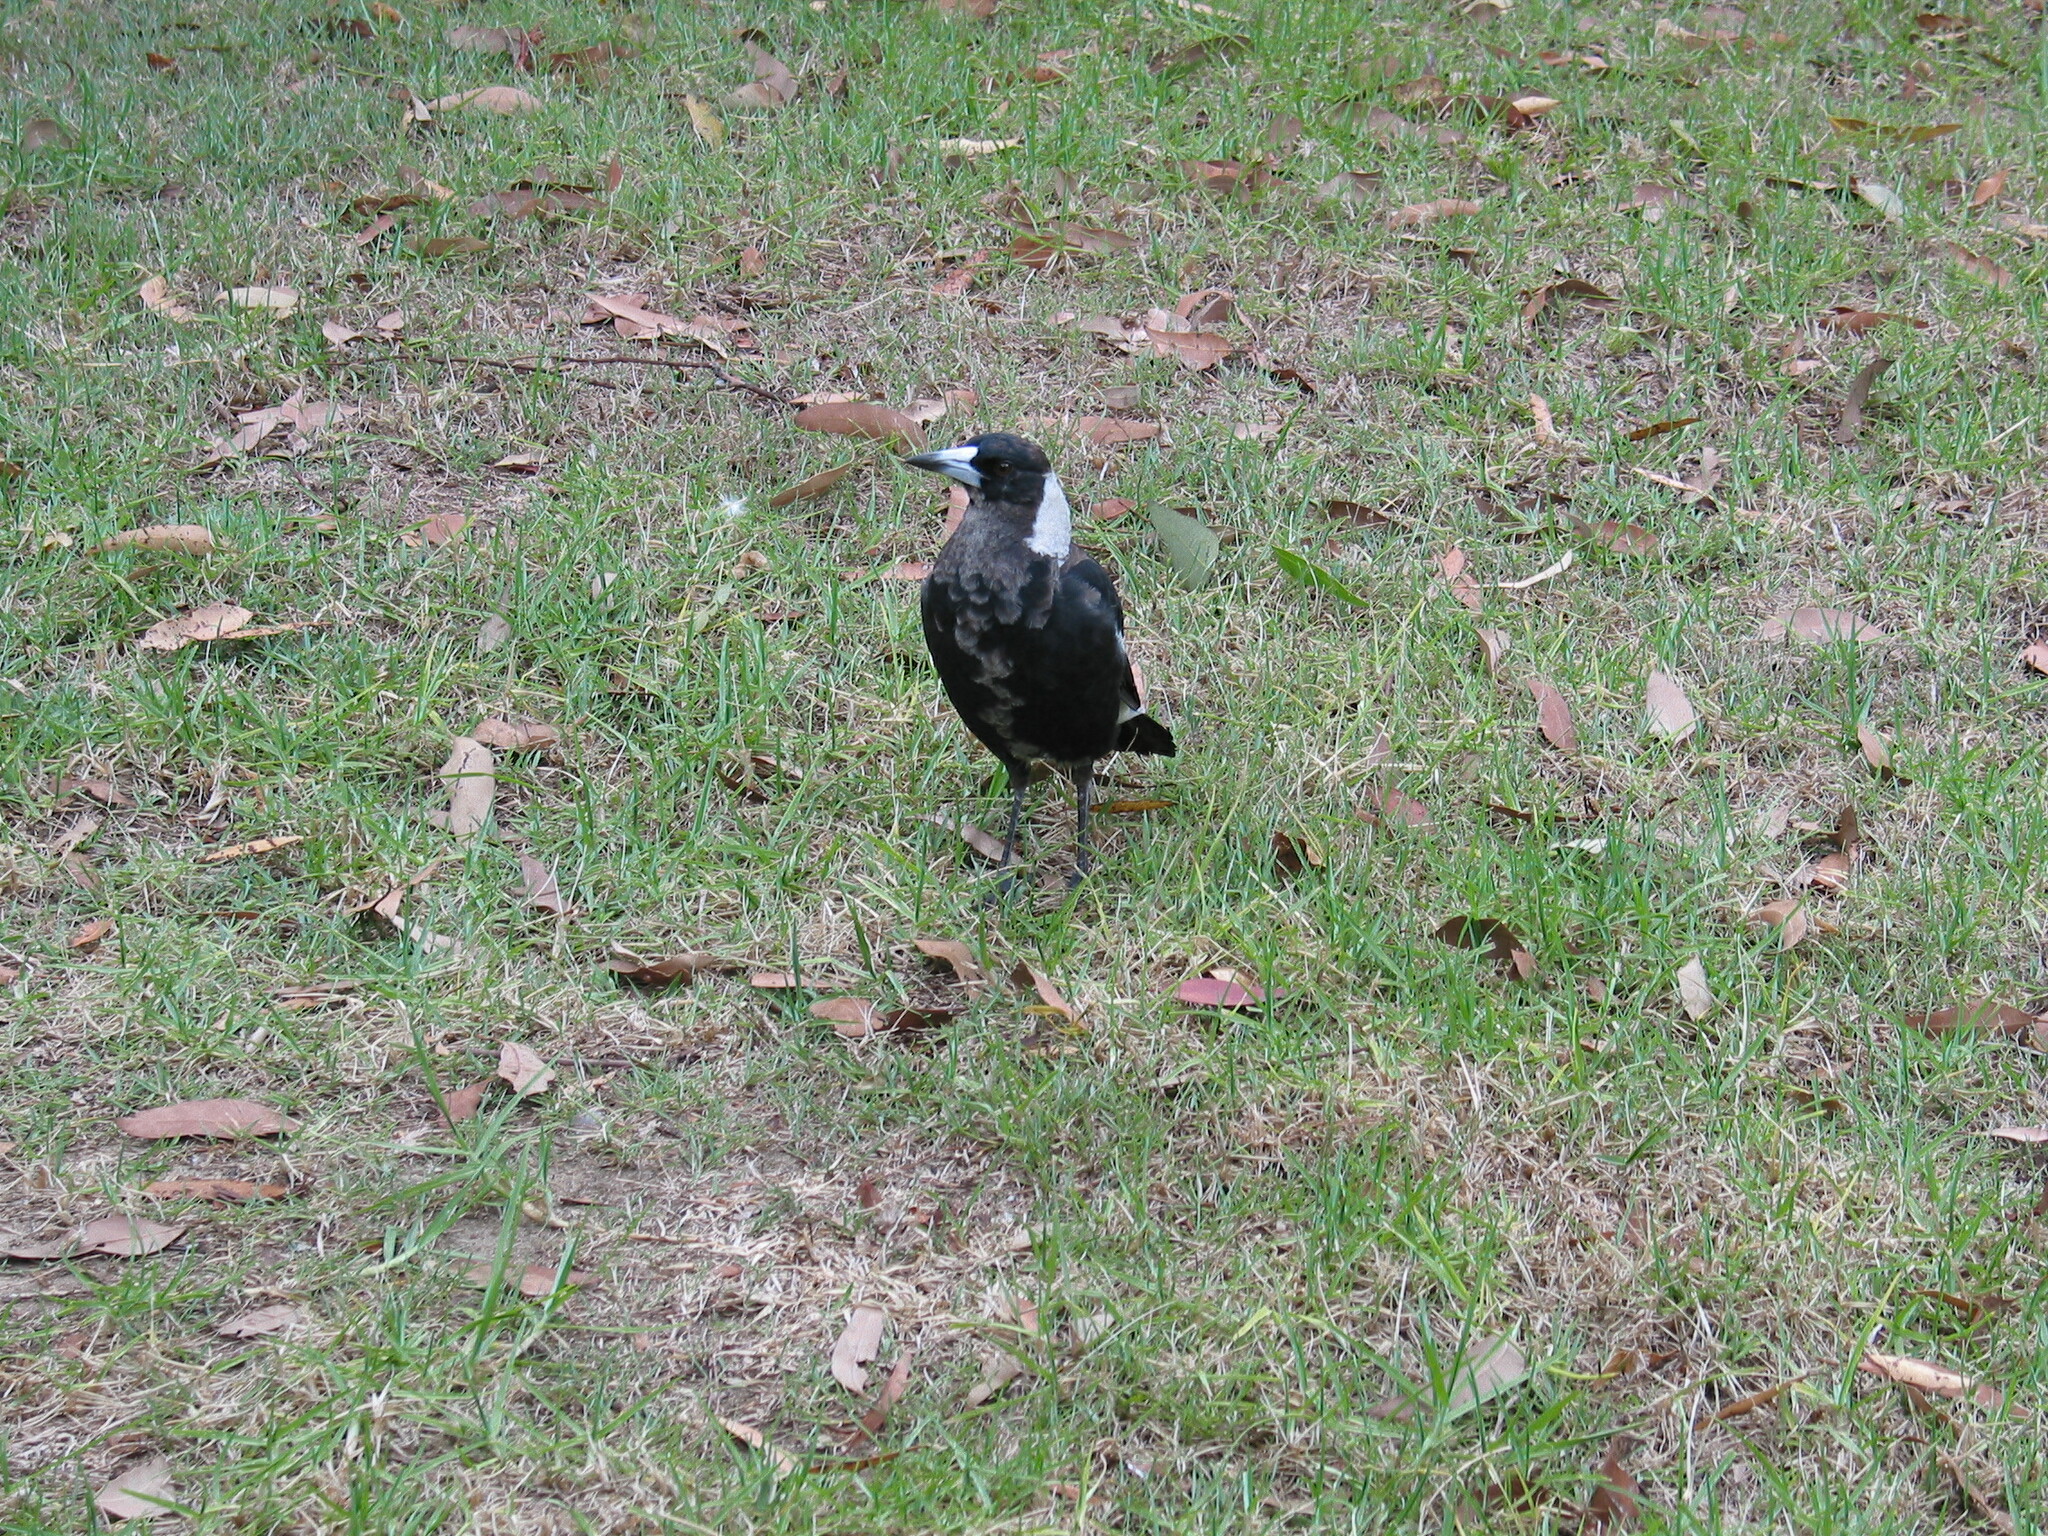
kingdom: Animalia
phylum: Chordata
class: Aves
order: Passeriformes
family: Cracticidae
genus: Gymnorhina
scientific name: Gymnorhina tibicen
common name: Australian magpie
